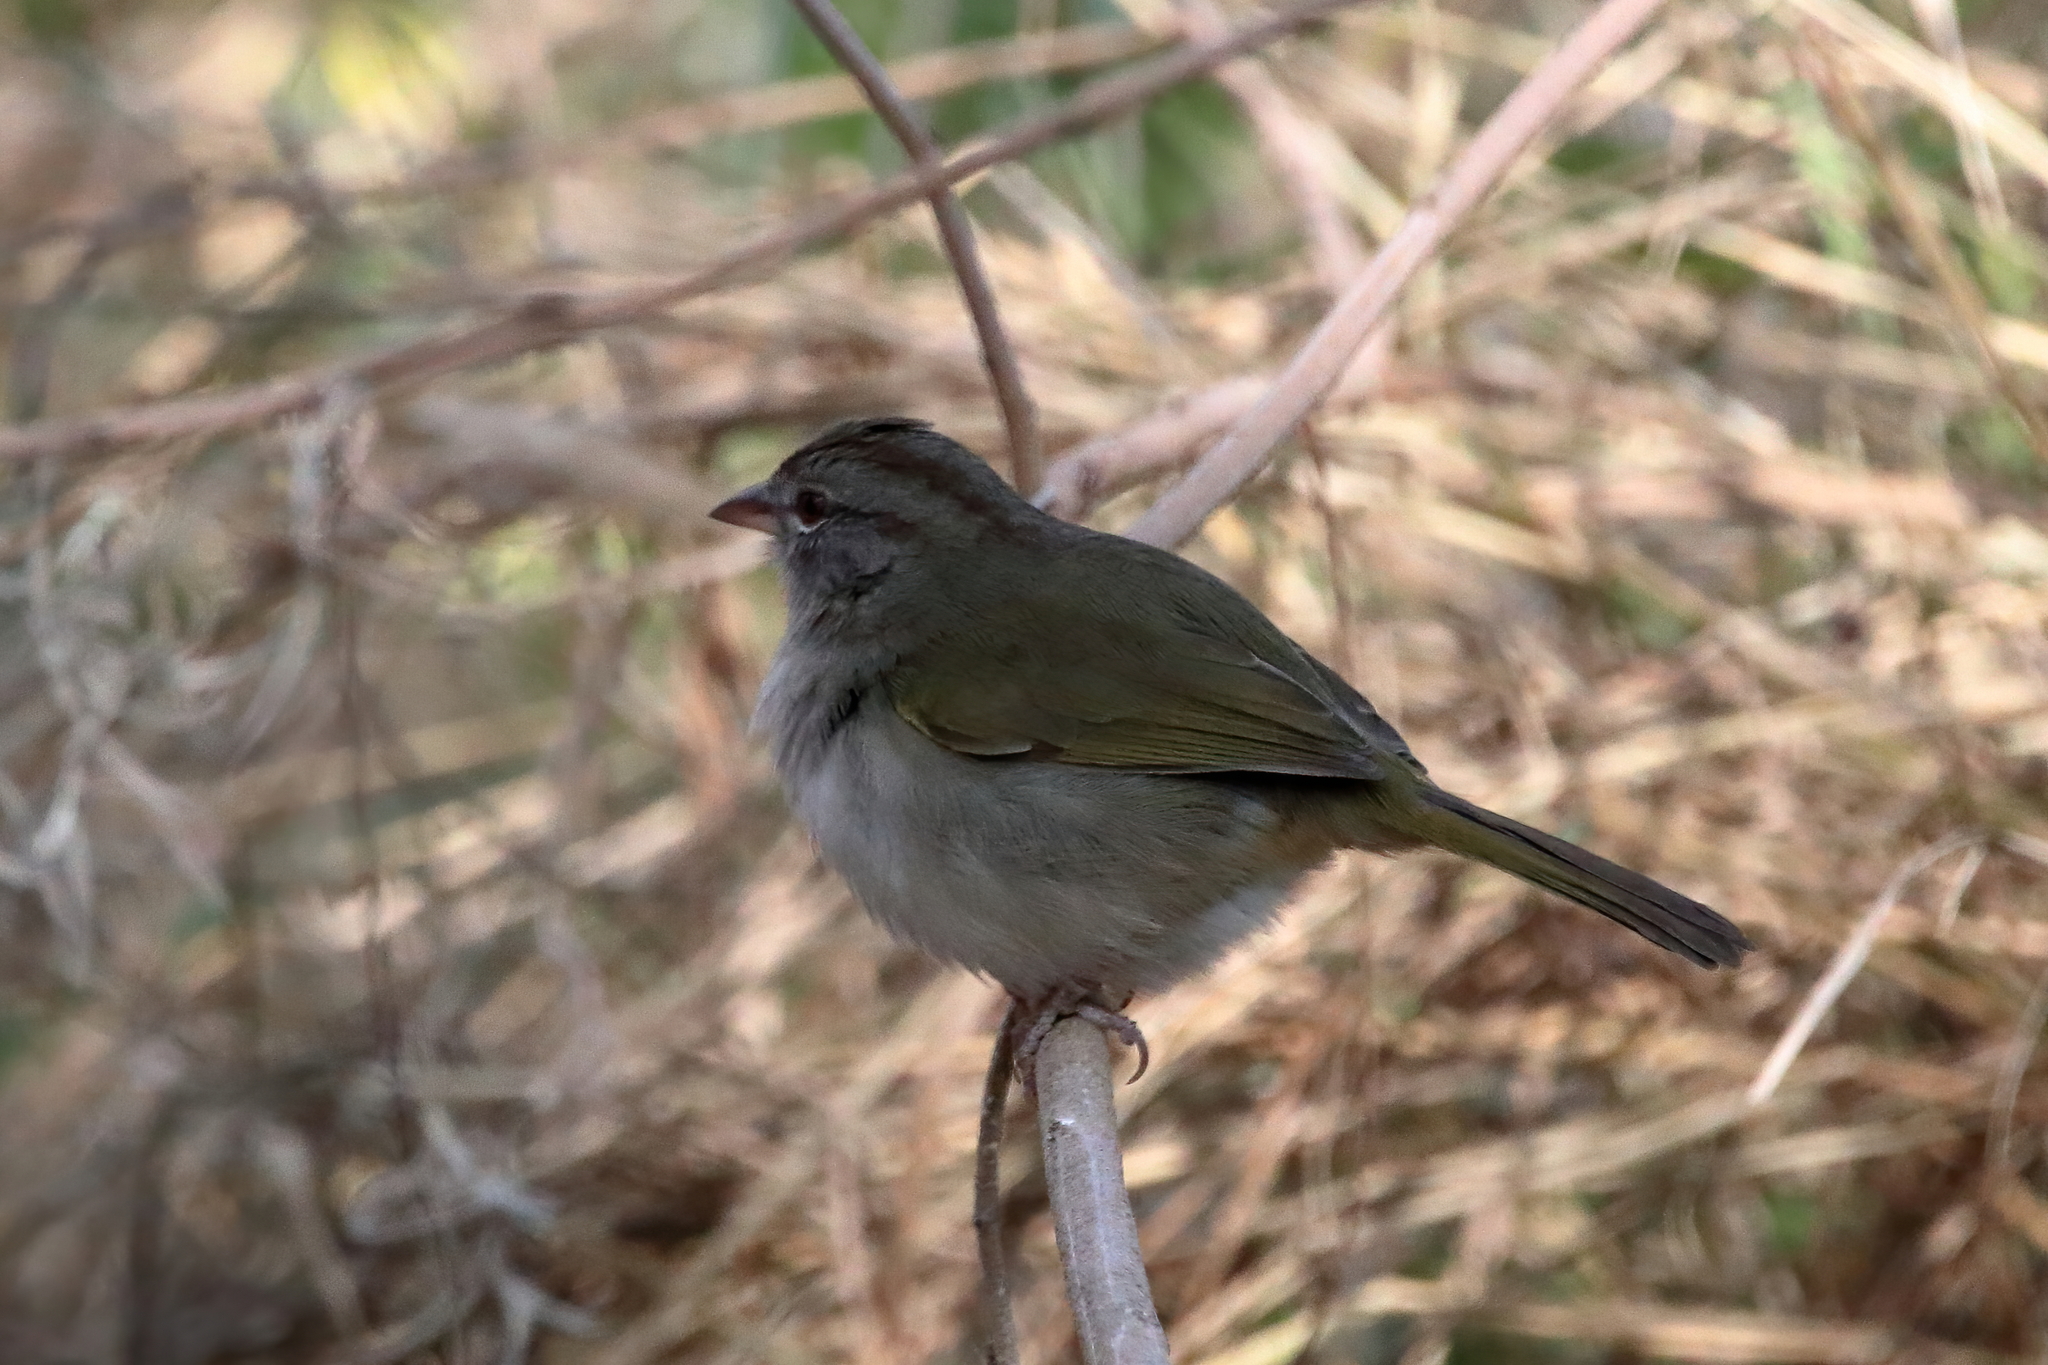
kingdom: Animalia
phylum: Chordata
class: Aves
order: Passeriformes
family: Passerellidae
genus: Arremonops
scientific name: Arremonops rufivirgatus
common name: Olive sparrow
